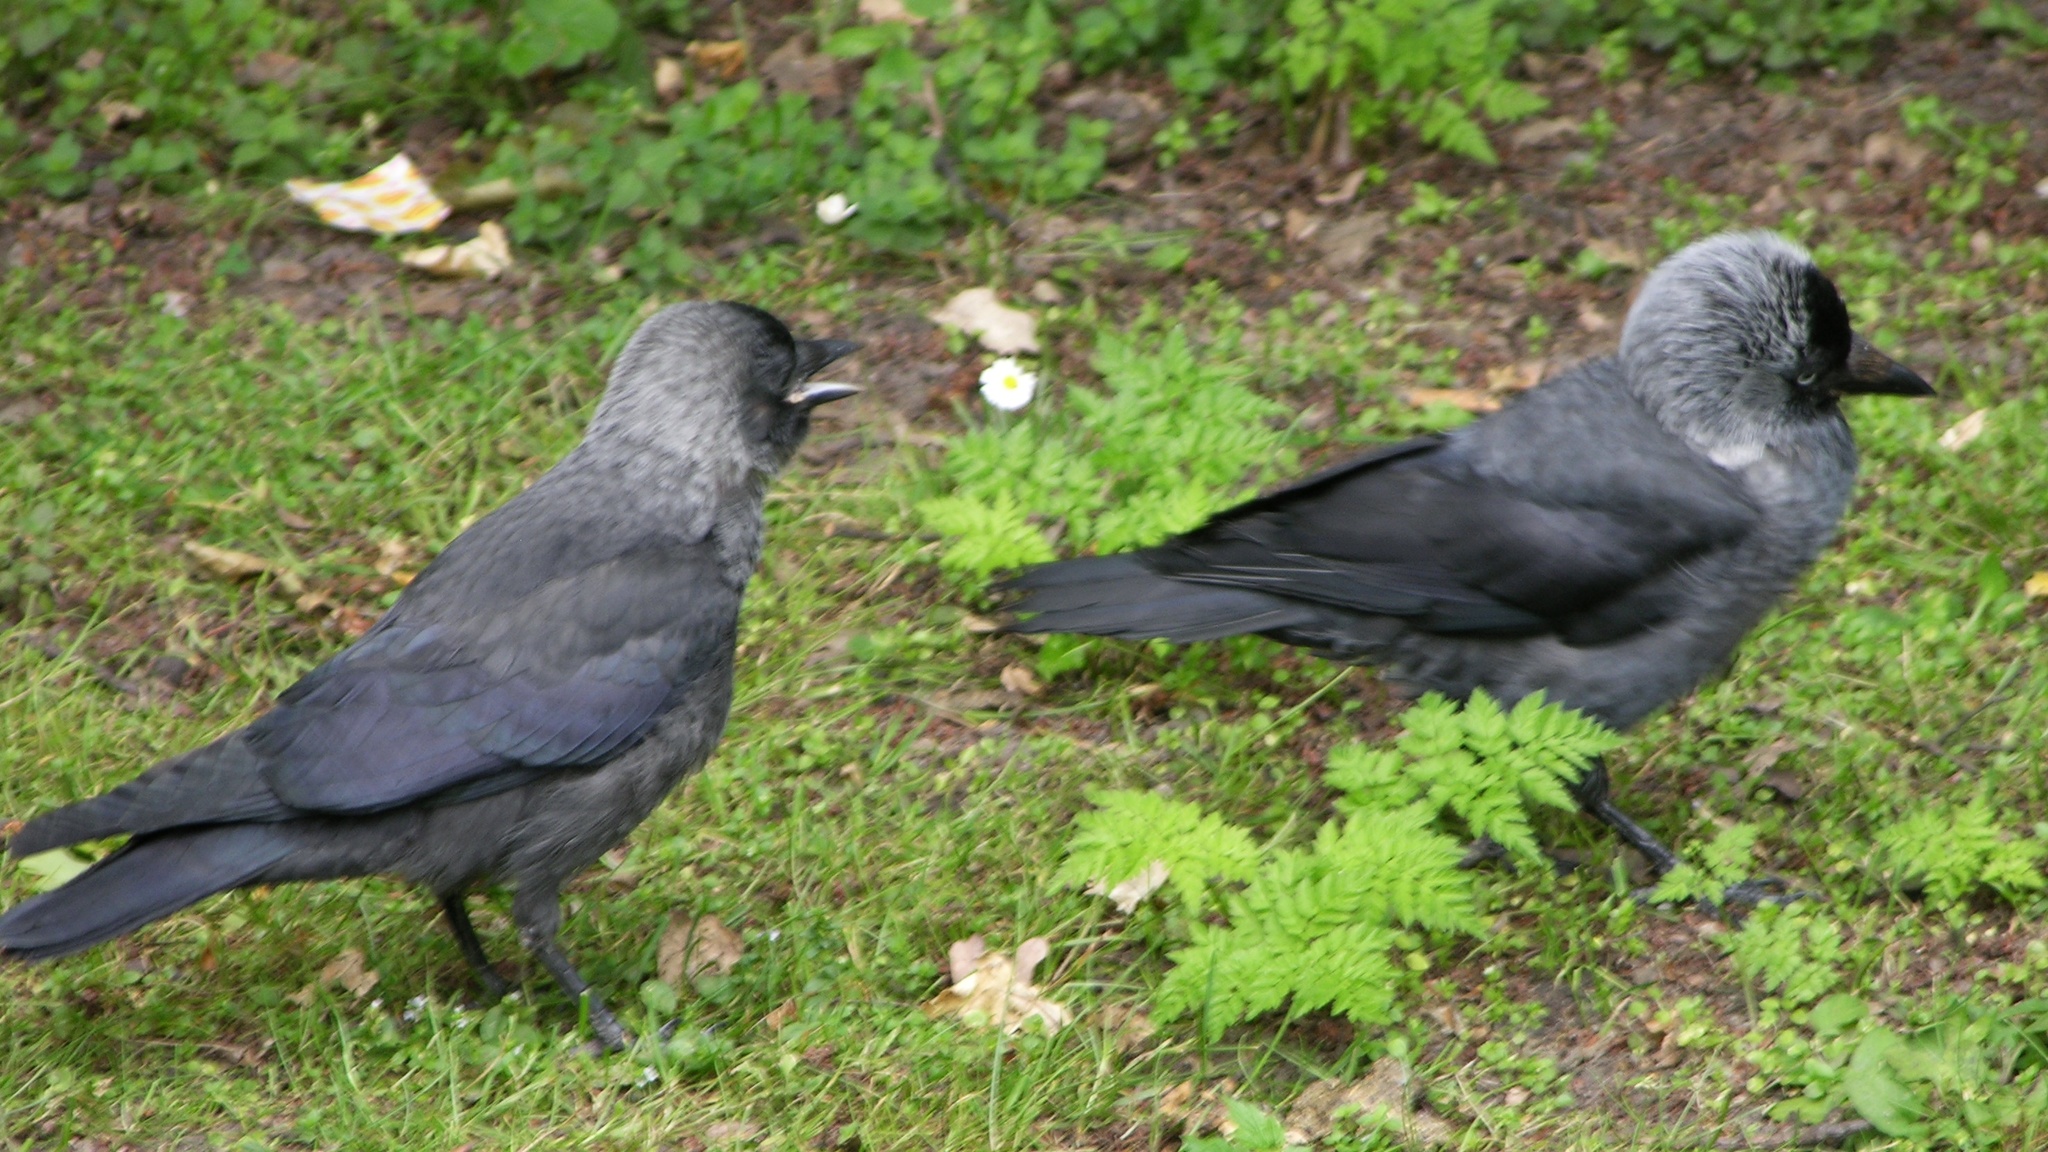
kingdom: Animalia
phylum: Chordata
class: Aves
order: Passeriformes
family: Corvidae
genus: Coloeus
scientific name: Coloeus monedula
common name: Western jackdaw
